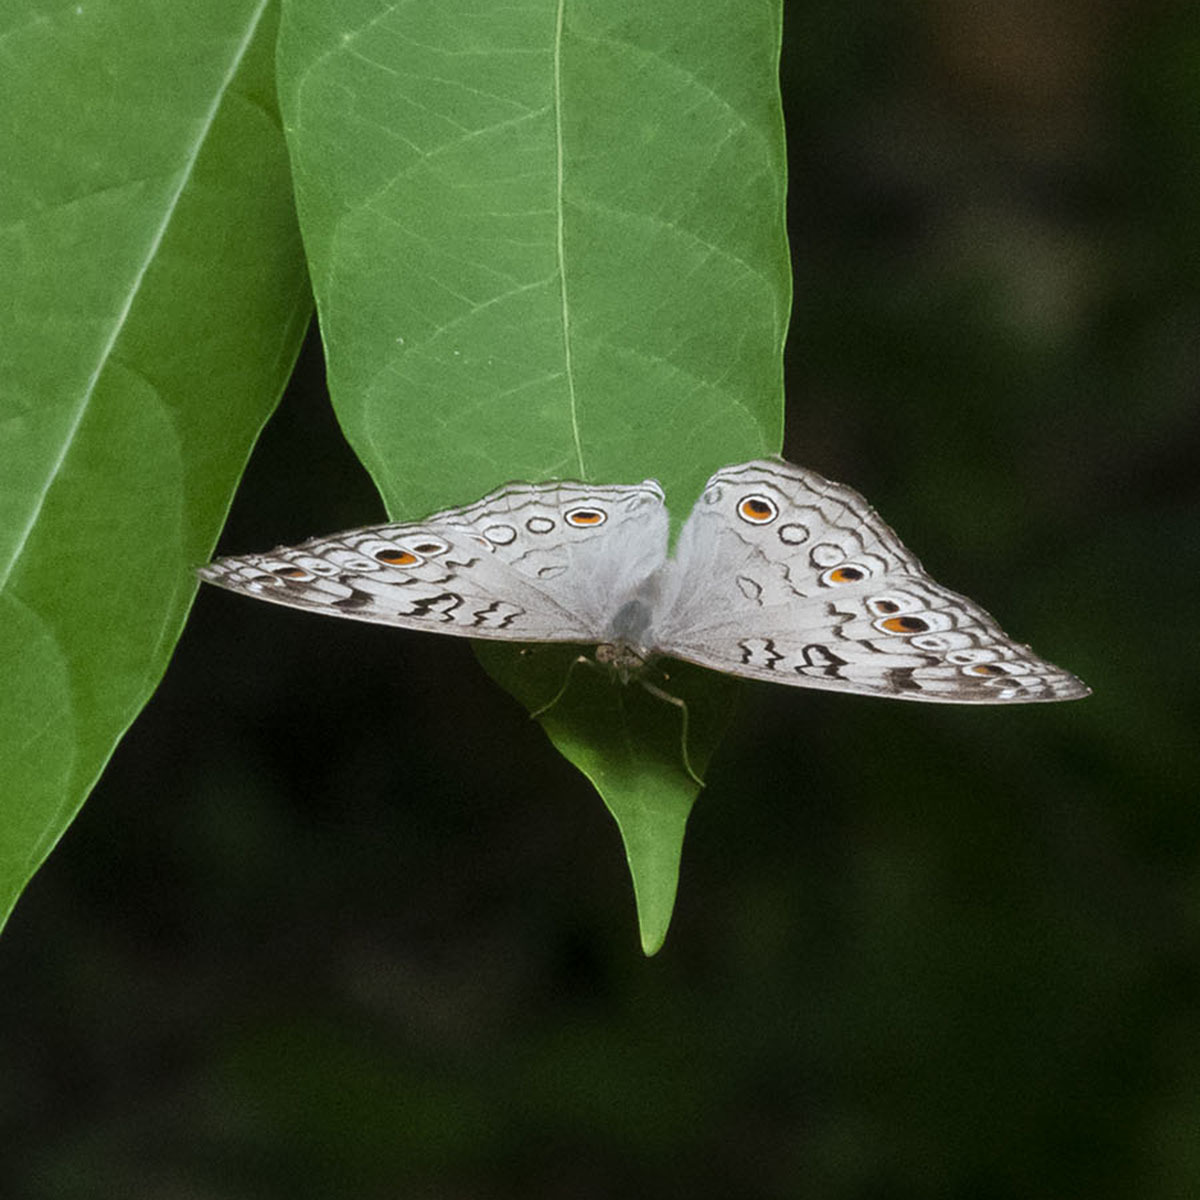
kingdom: Animalia
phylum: Arthropoda
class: Insecta
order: Lepidoptera
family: Nymphalidae
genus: Junonia
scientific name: Junonia atlites
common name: Grey pansy
